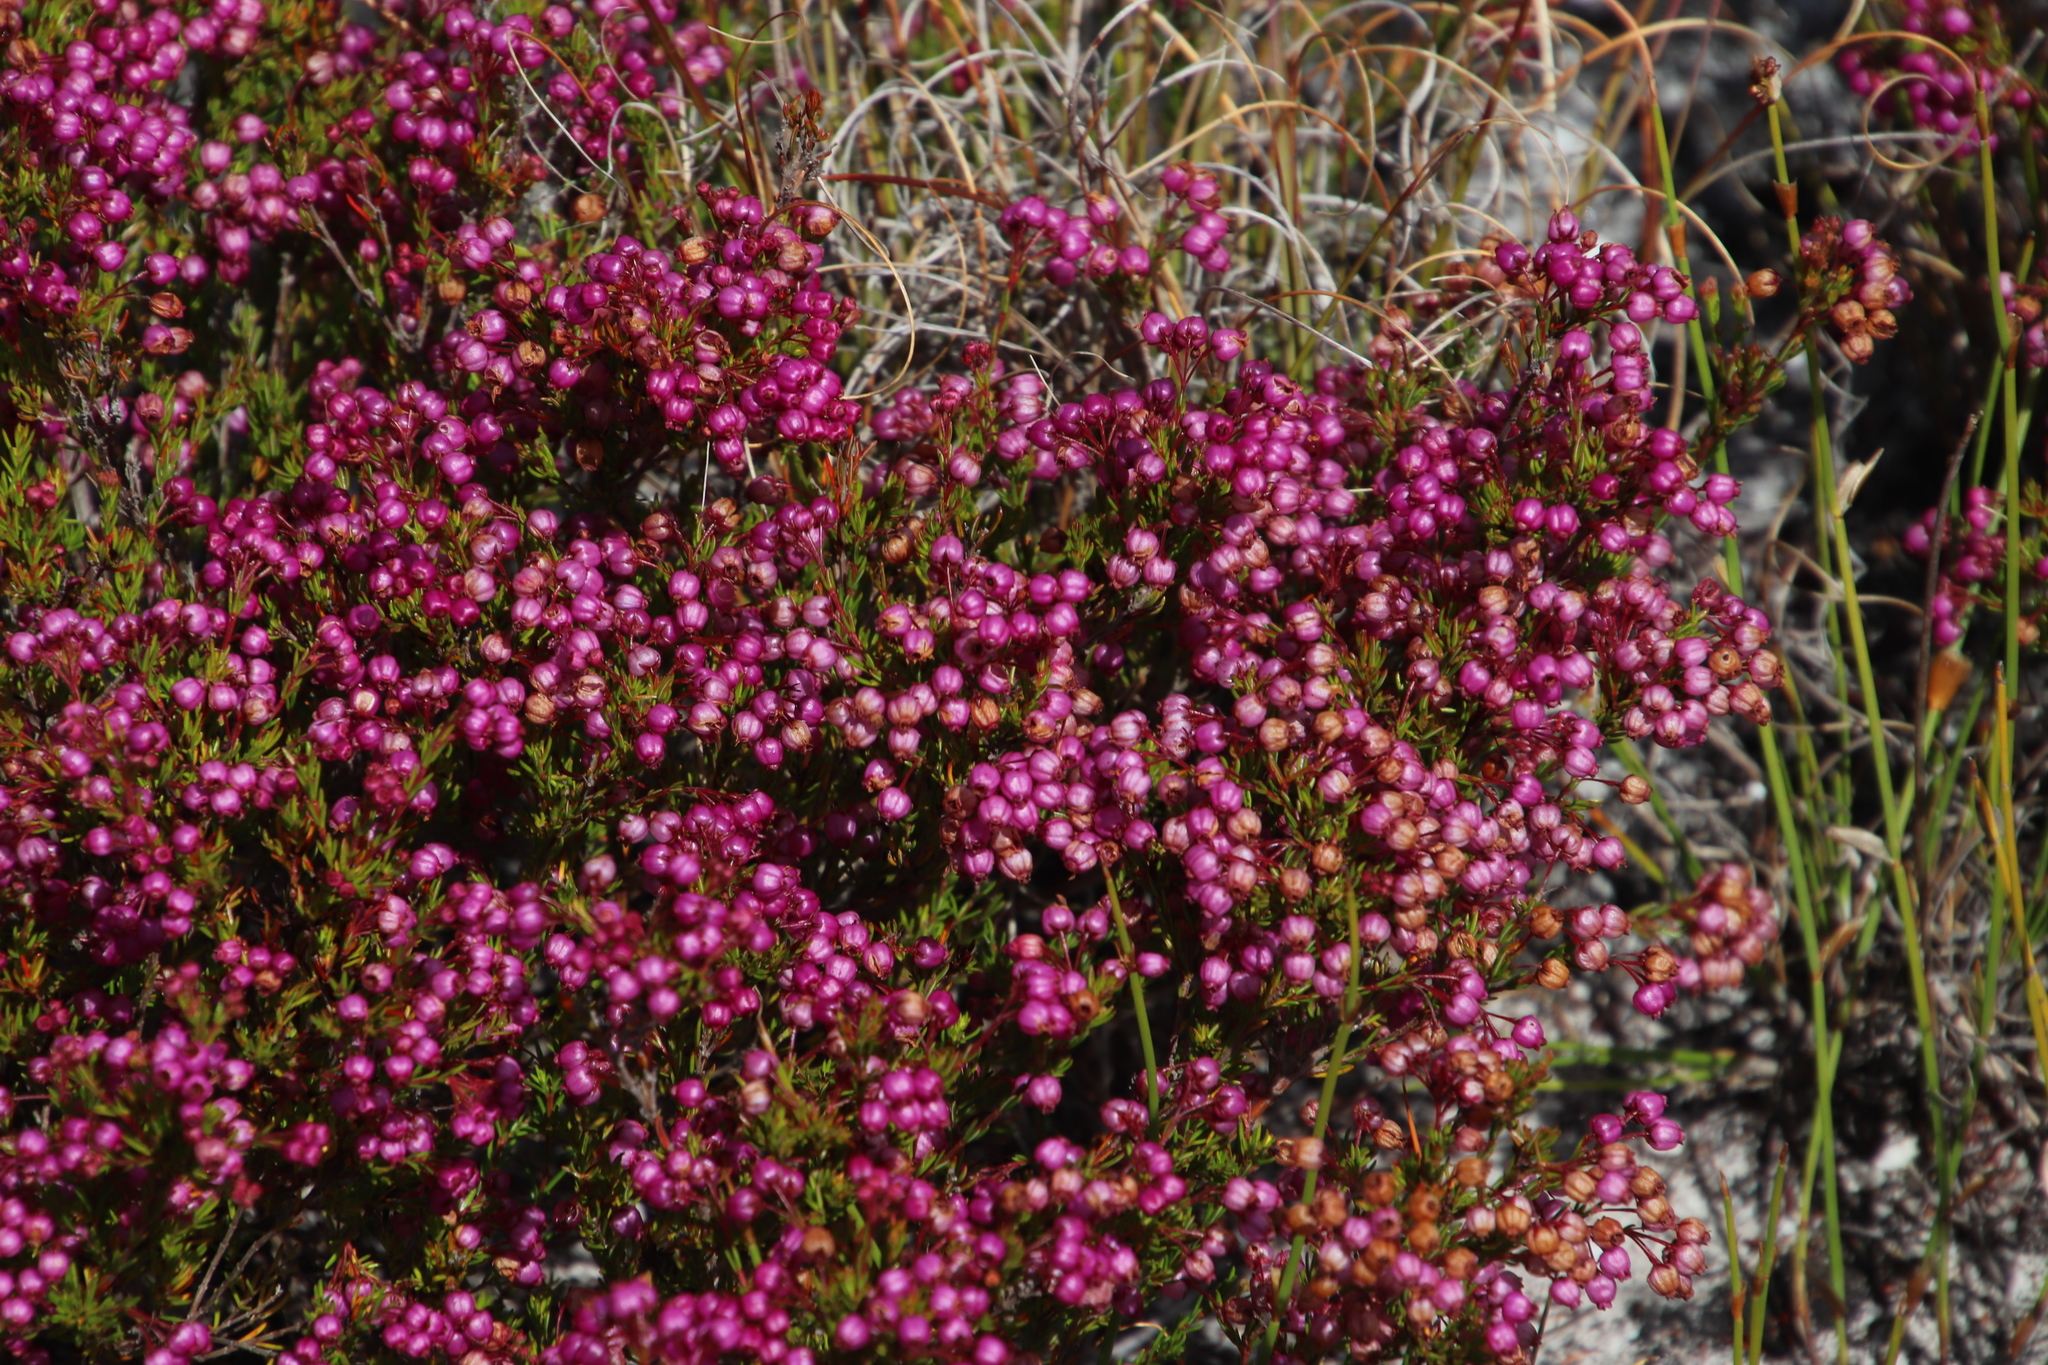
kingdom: Plantae
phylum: Tracheophyta
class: Magnoliopsida
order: Ericales
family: Ericaceae
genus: Erica
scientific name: Erica multumbellifera
